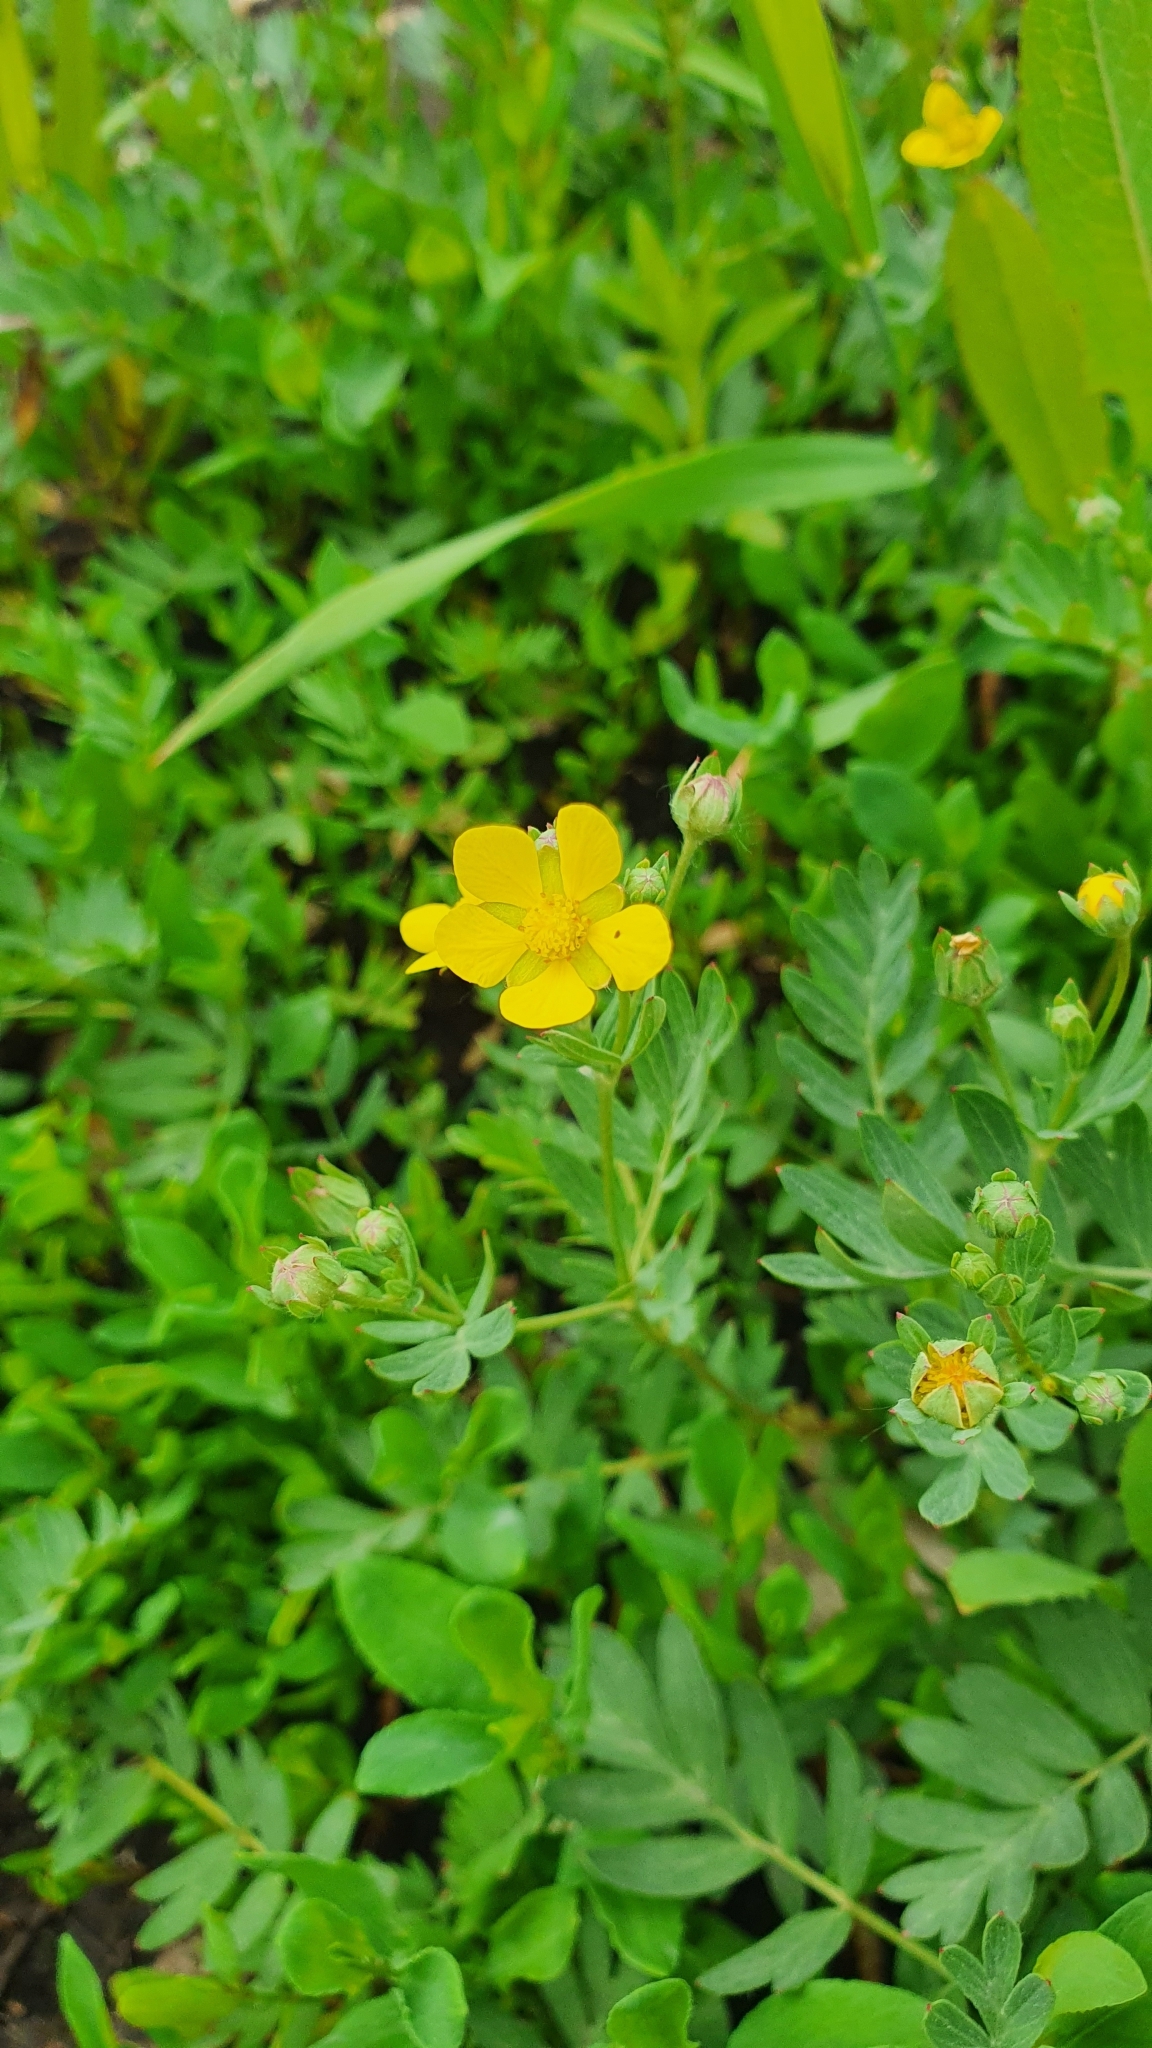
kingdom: Plantae
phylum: Tracheophyta
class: Magnoliopsida
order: Rosales
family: Rosaceae
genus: Sibbaldianthe
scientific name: Sibbaldianthe bifurca
